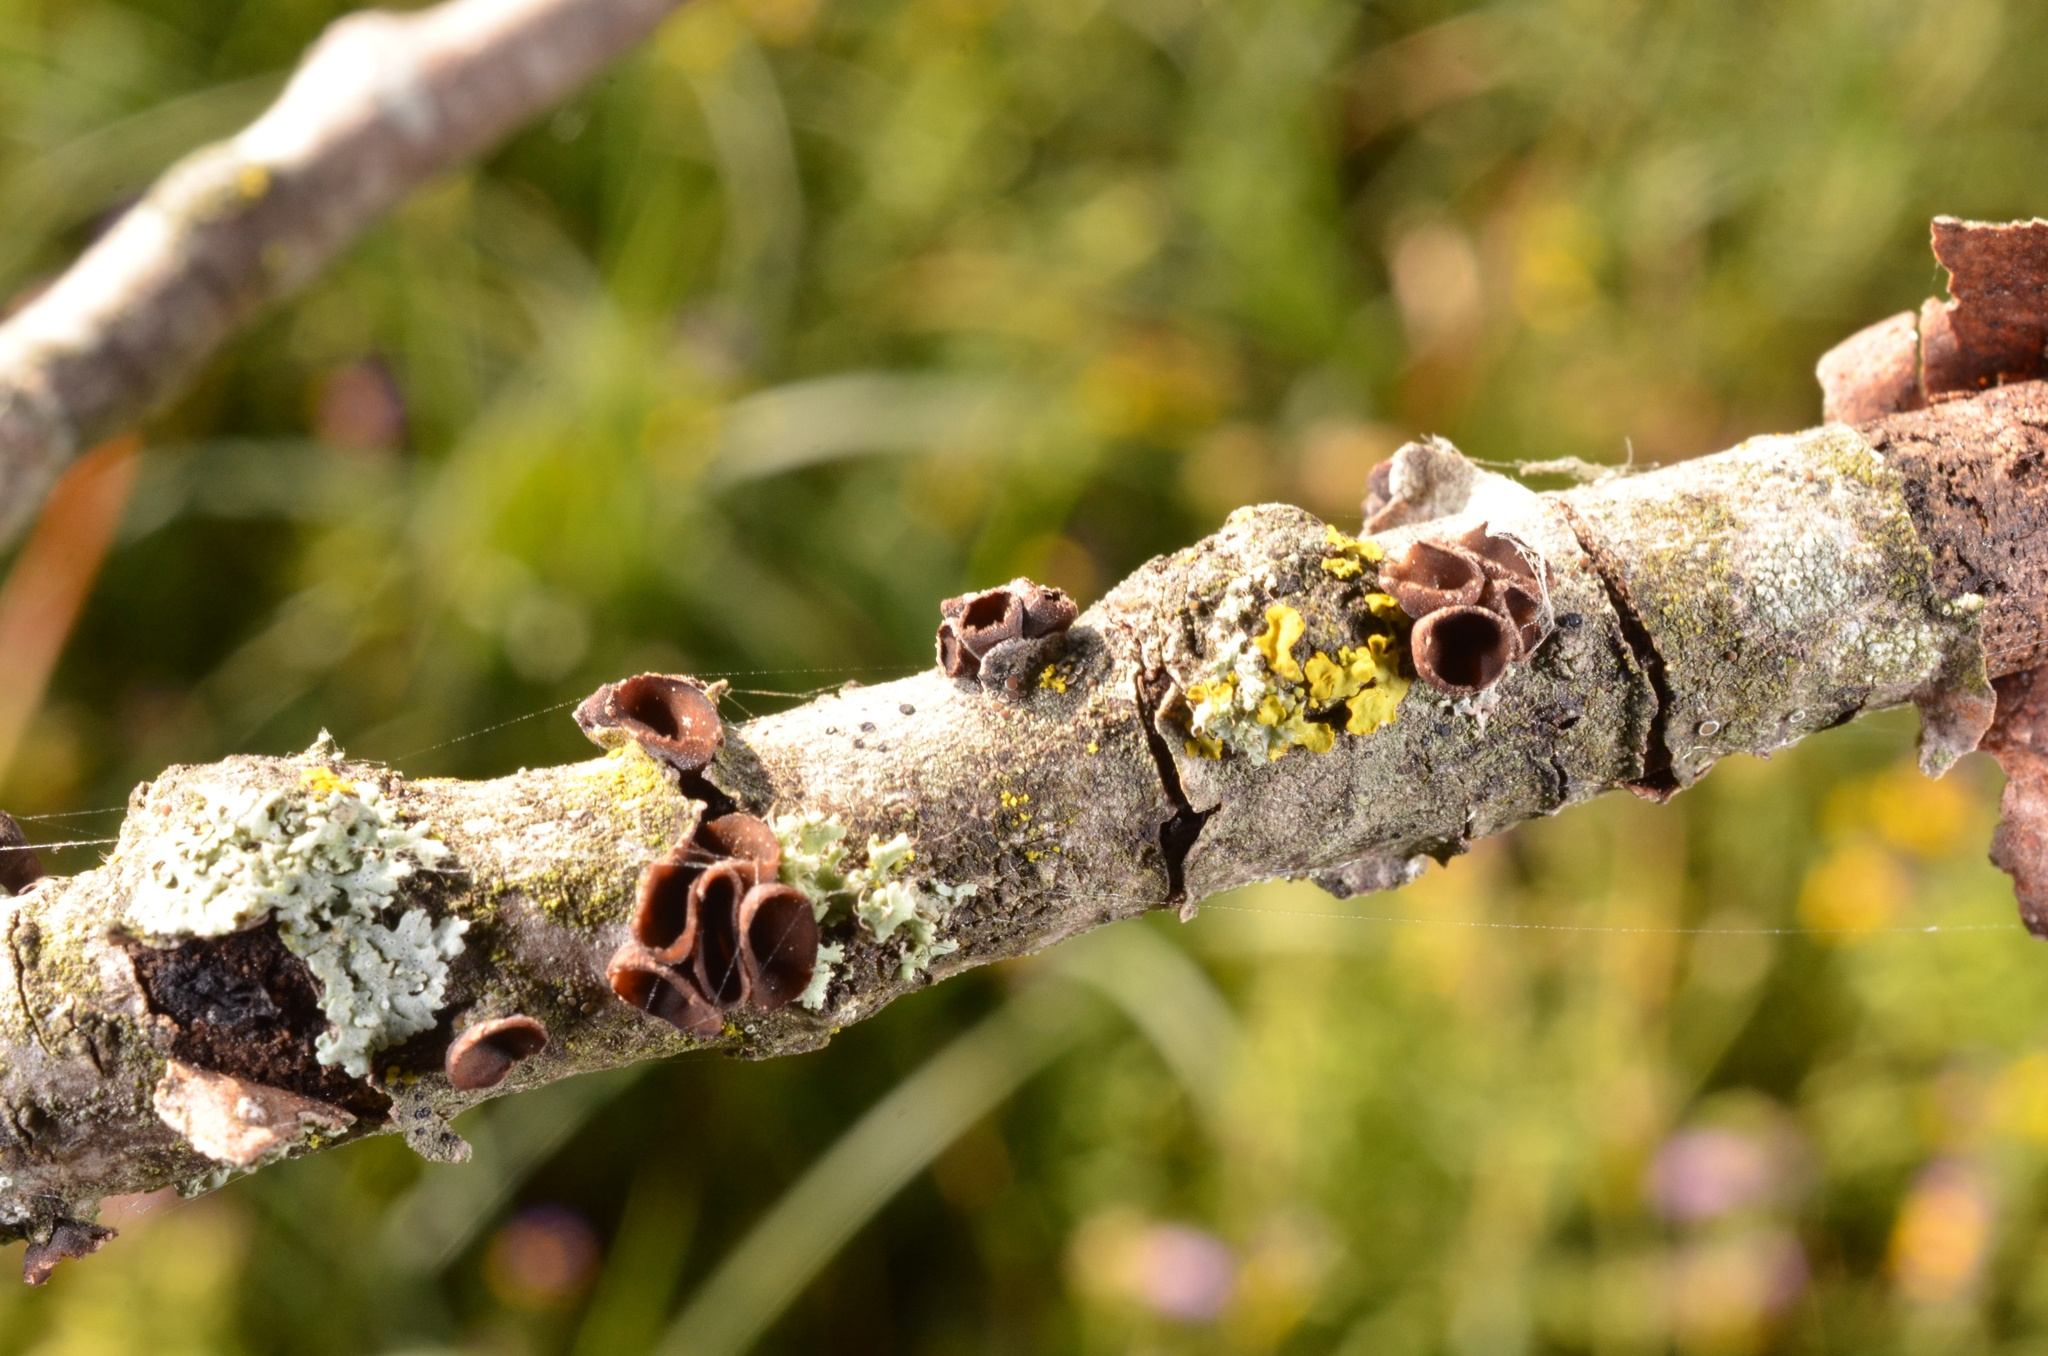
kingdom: Fungi
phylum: Ascomycota
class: Leotiomycetes
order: Helotiales
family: Sclerotiniaceae
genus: Sclerencoelia
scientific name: Sclerencoelia fascicularis
